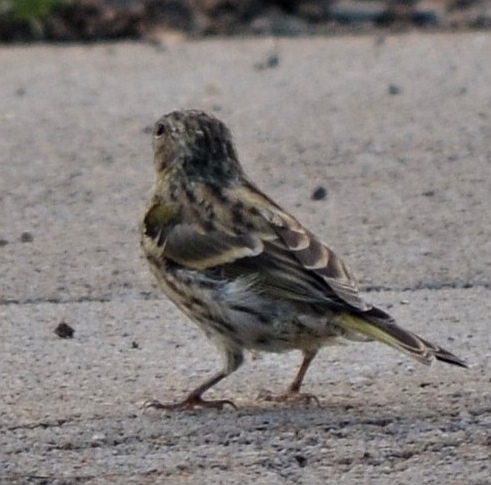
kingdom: Animalia
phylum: Chordata
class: Aves
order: Passeriformes
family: Fringillidae
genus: Serinus
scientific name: Serinus serinus
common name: European serin
